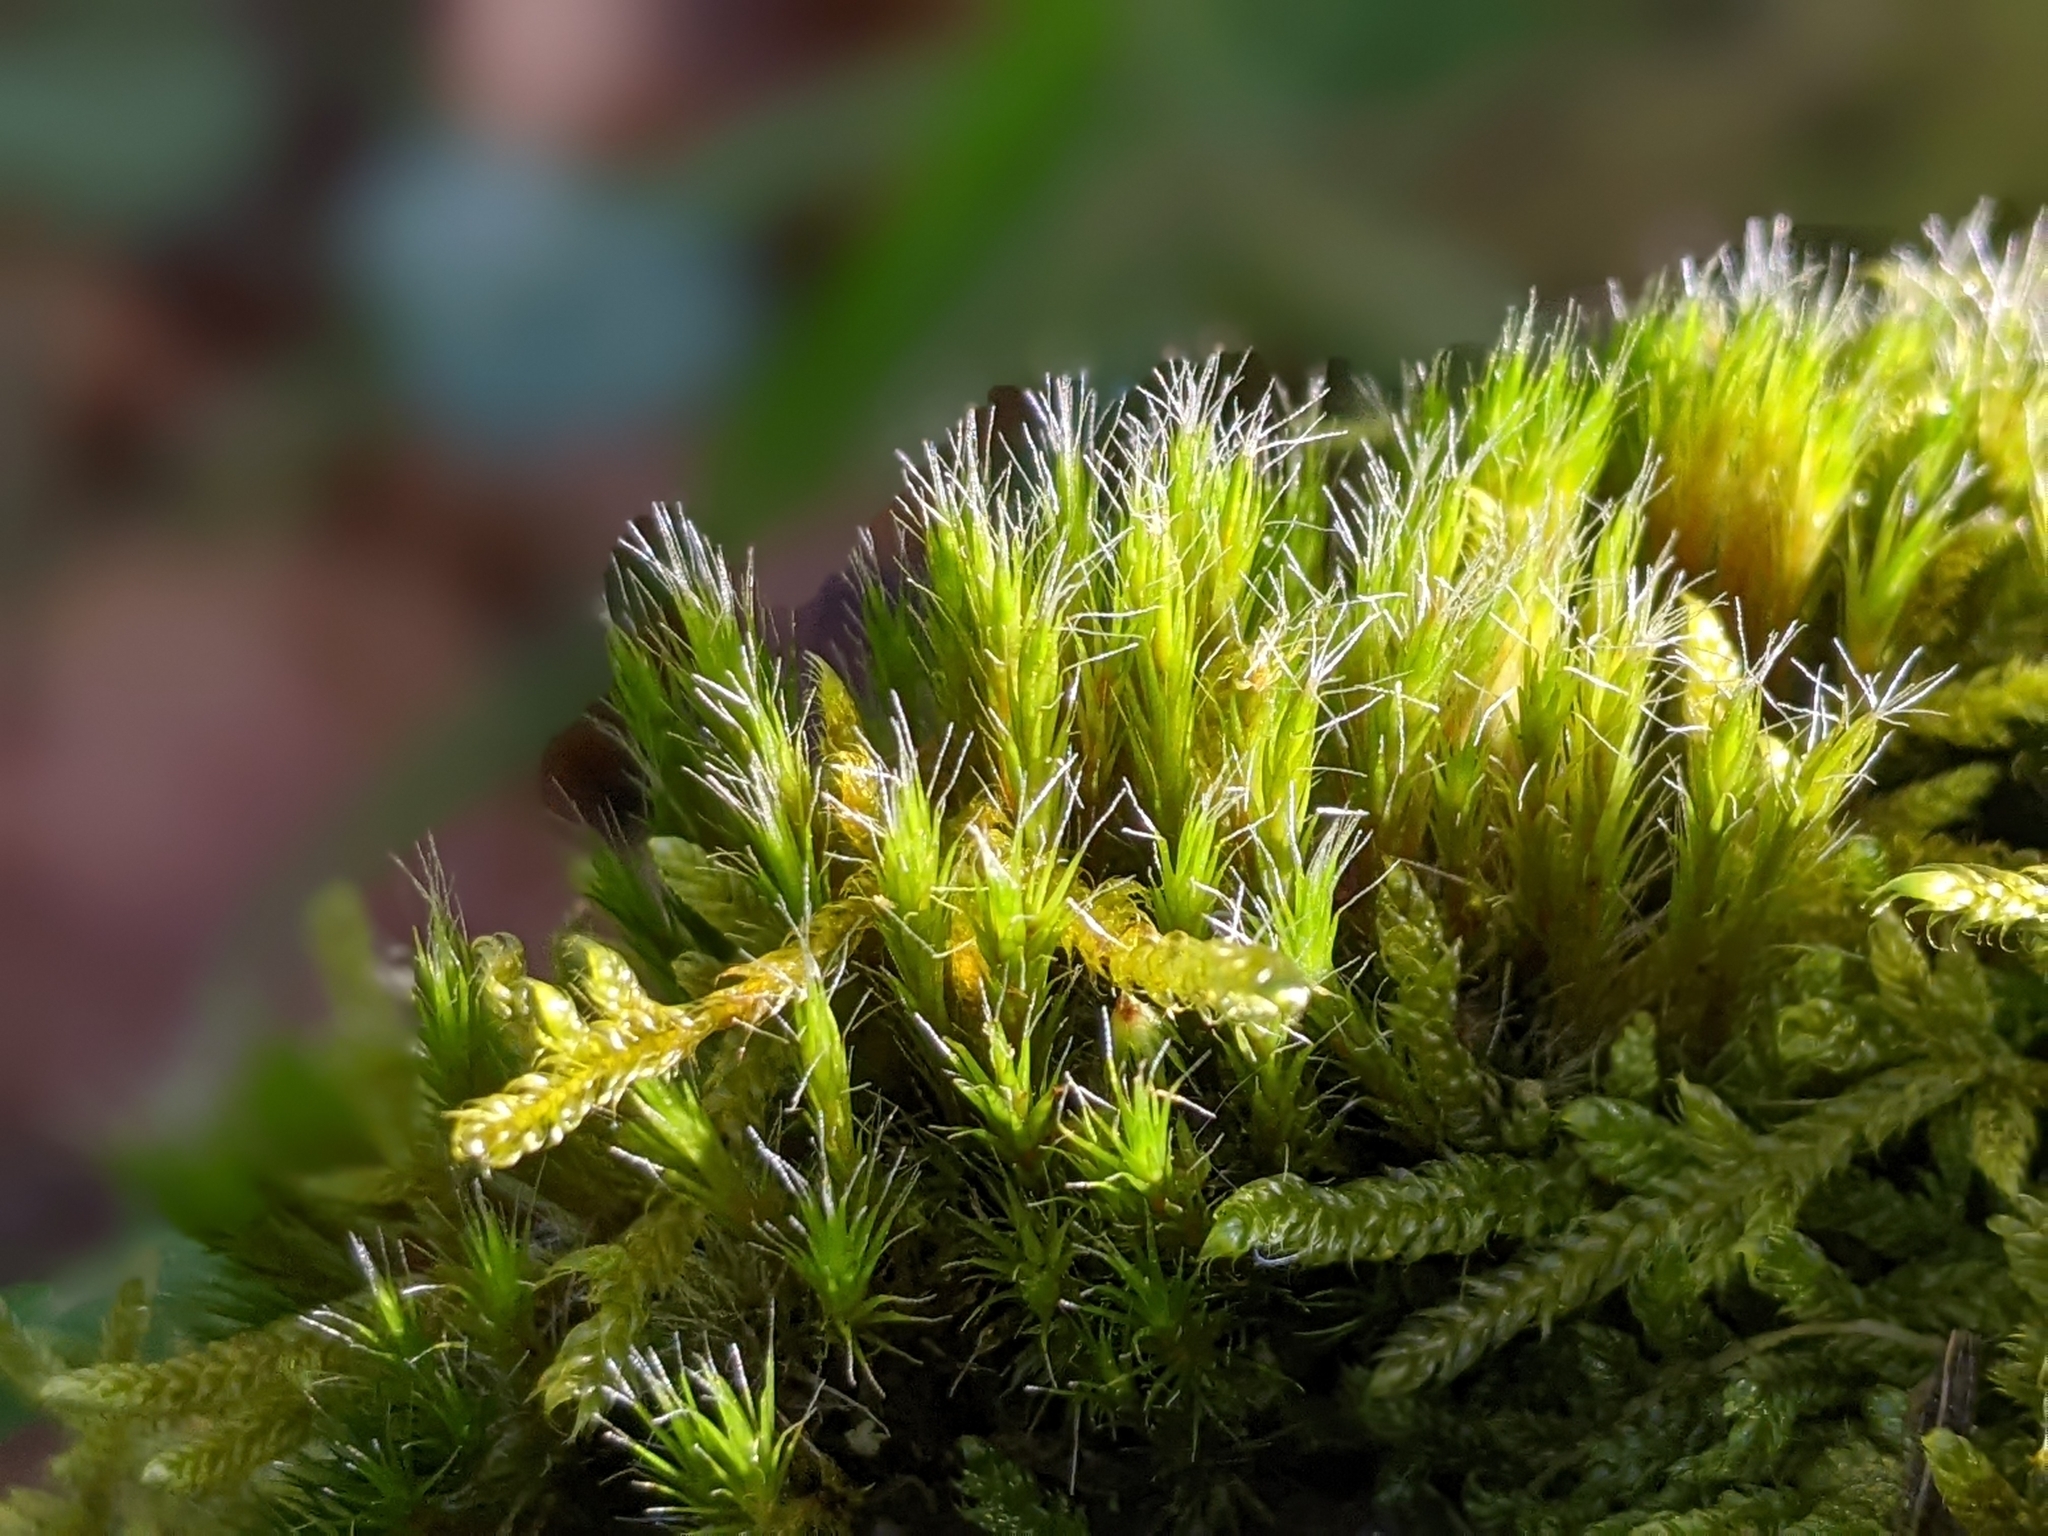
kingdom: Plantae
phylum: Bryophyta
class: Bryopsida
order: Dicranales
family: Leucobryaceae
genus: Campylopus
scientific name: Campylopus introflexus
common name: Heath star moss
